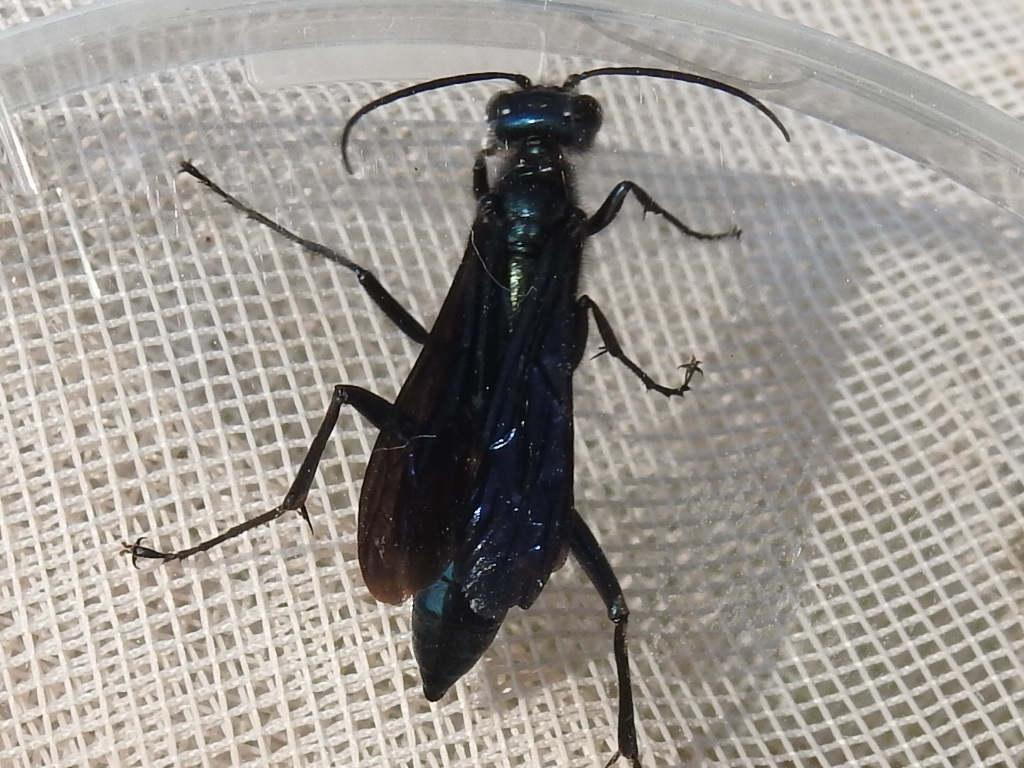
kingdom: Animalia
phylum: Arthropoda
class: Insecta
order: Hymenoptera
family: Sphecidae
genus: Chalybion
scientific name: Chalybion californicum
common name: Mud dauber
